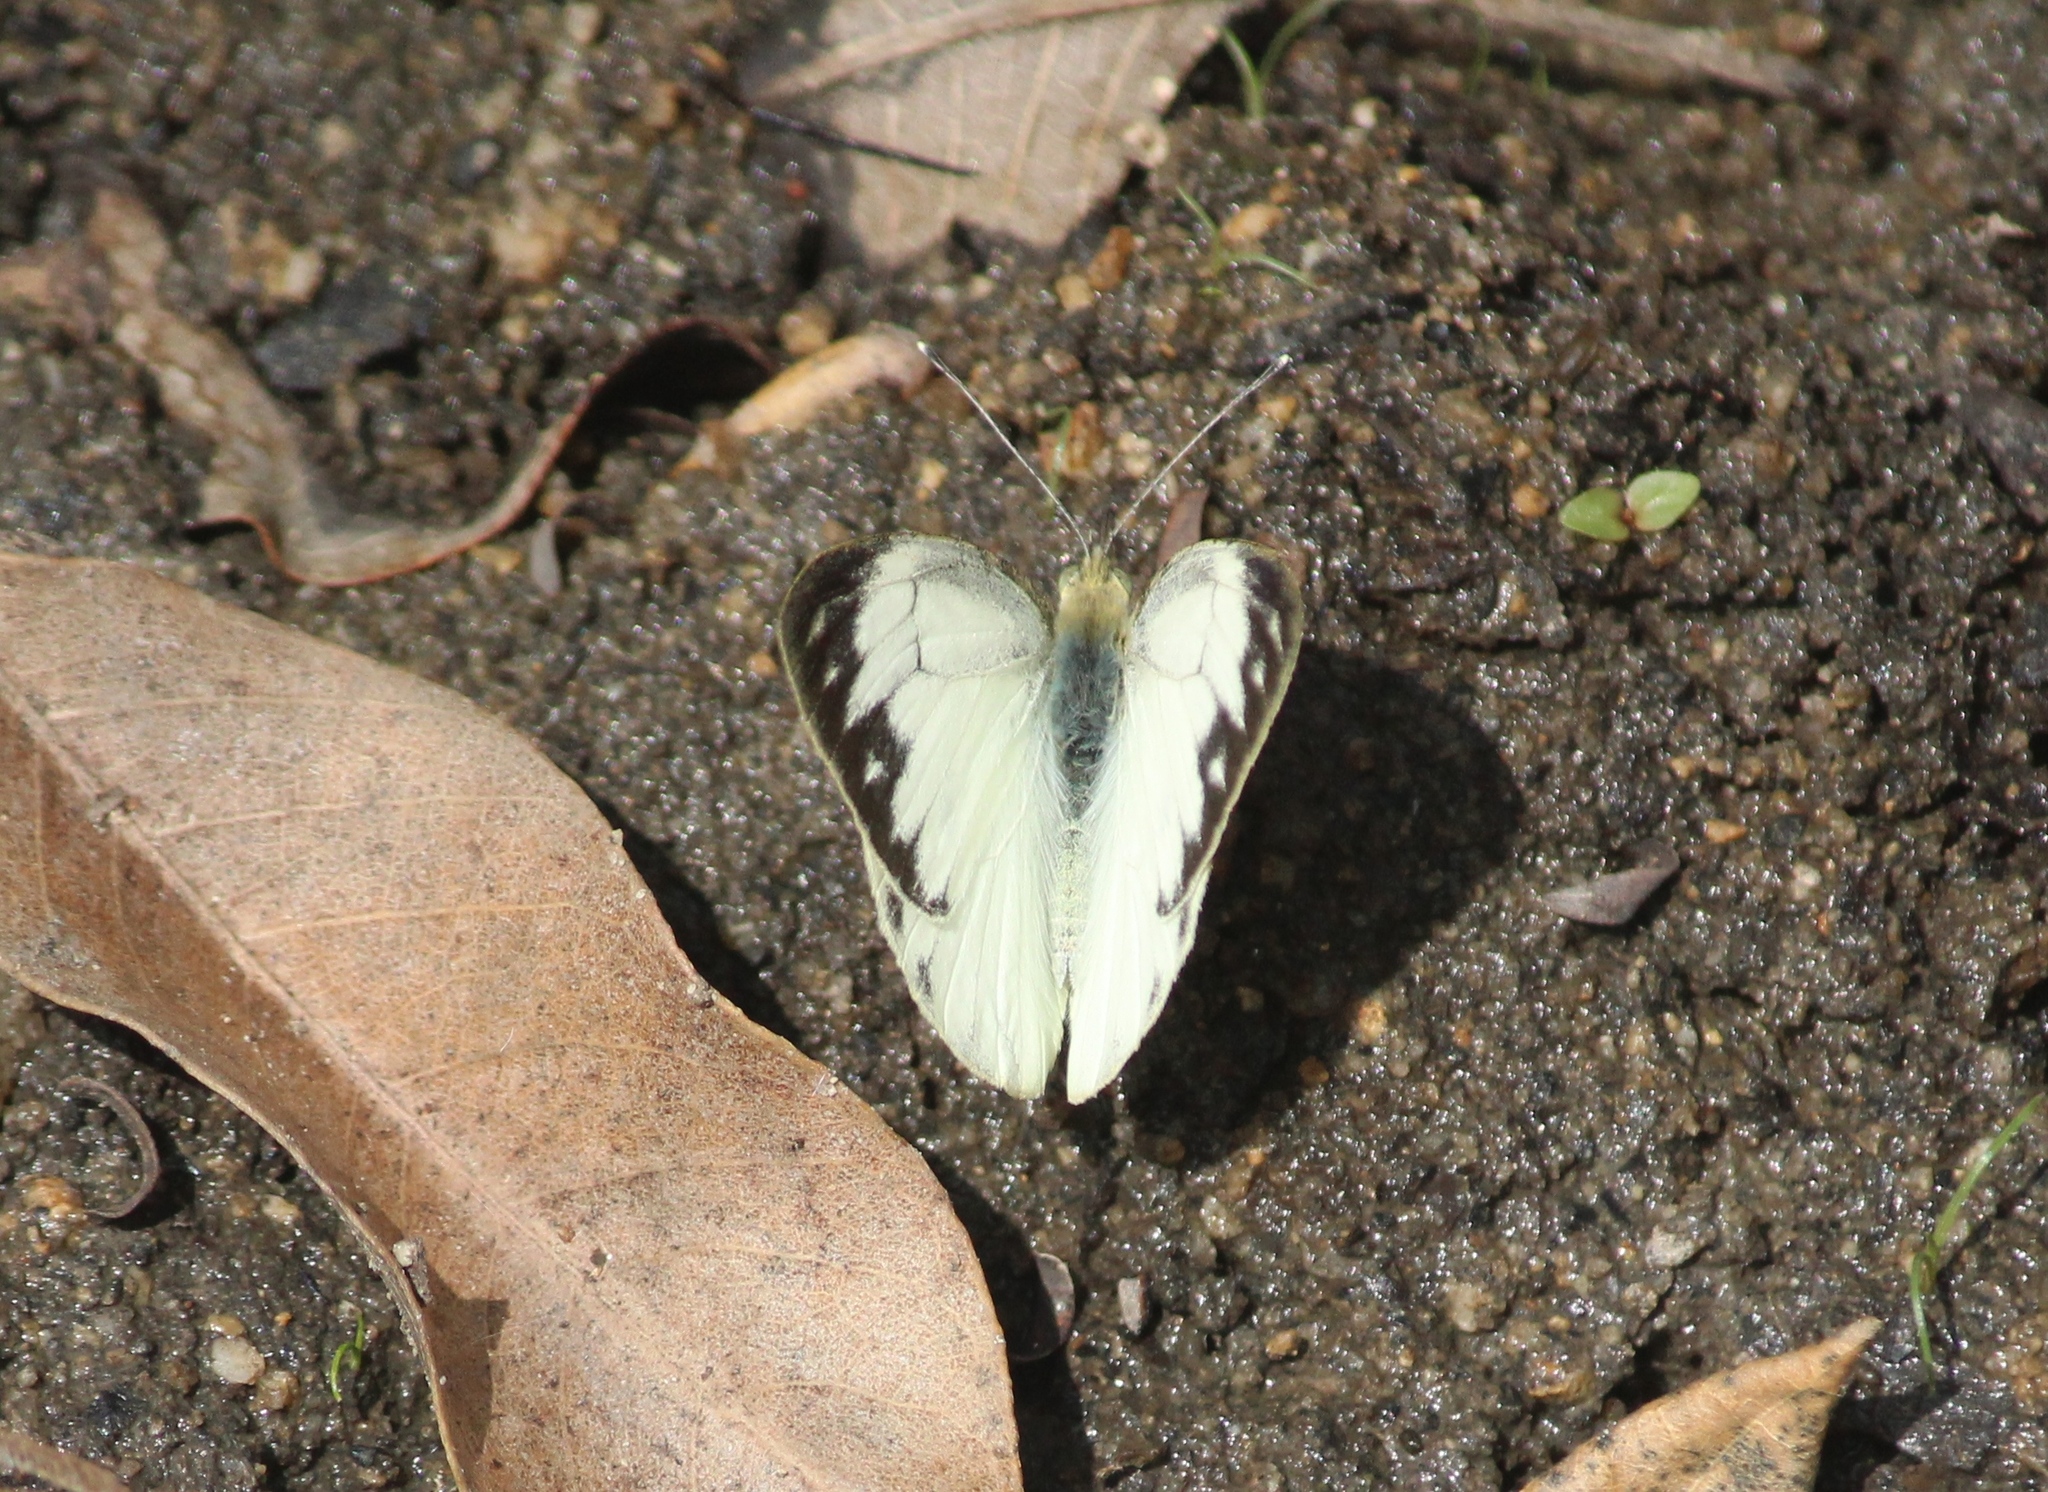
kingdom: Animalia
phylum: Arthropoda
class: Insecta
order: Lepidoptera
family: Pieridae
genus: Cepora
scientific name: Cepora nerissa
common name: Common gull
